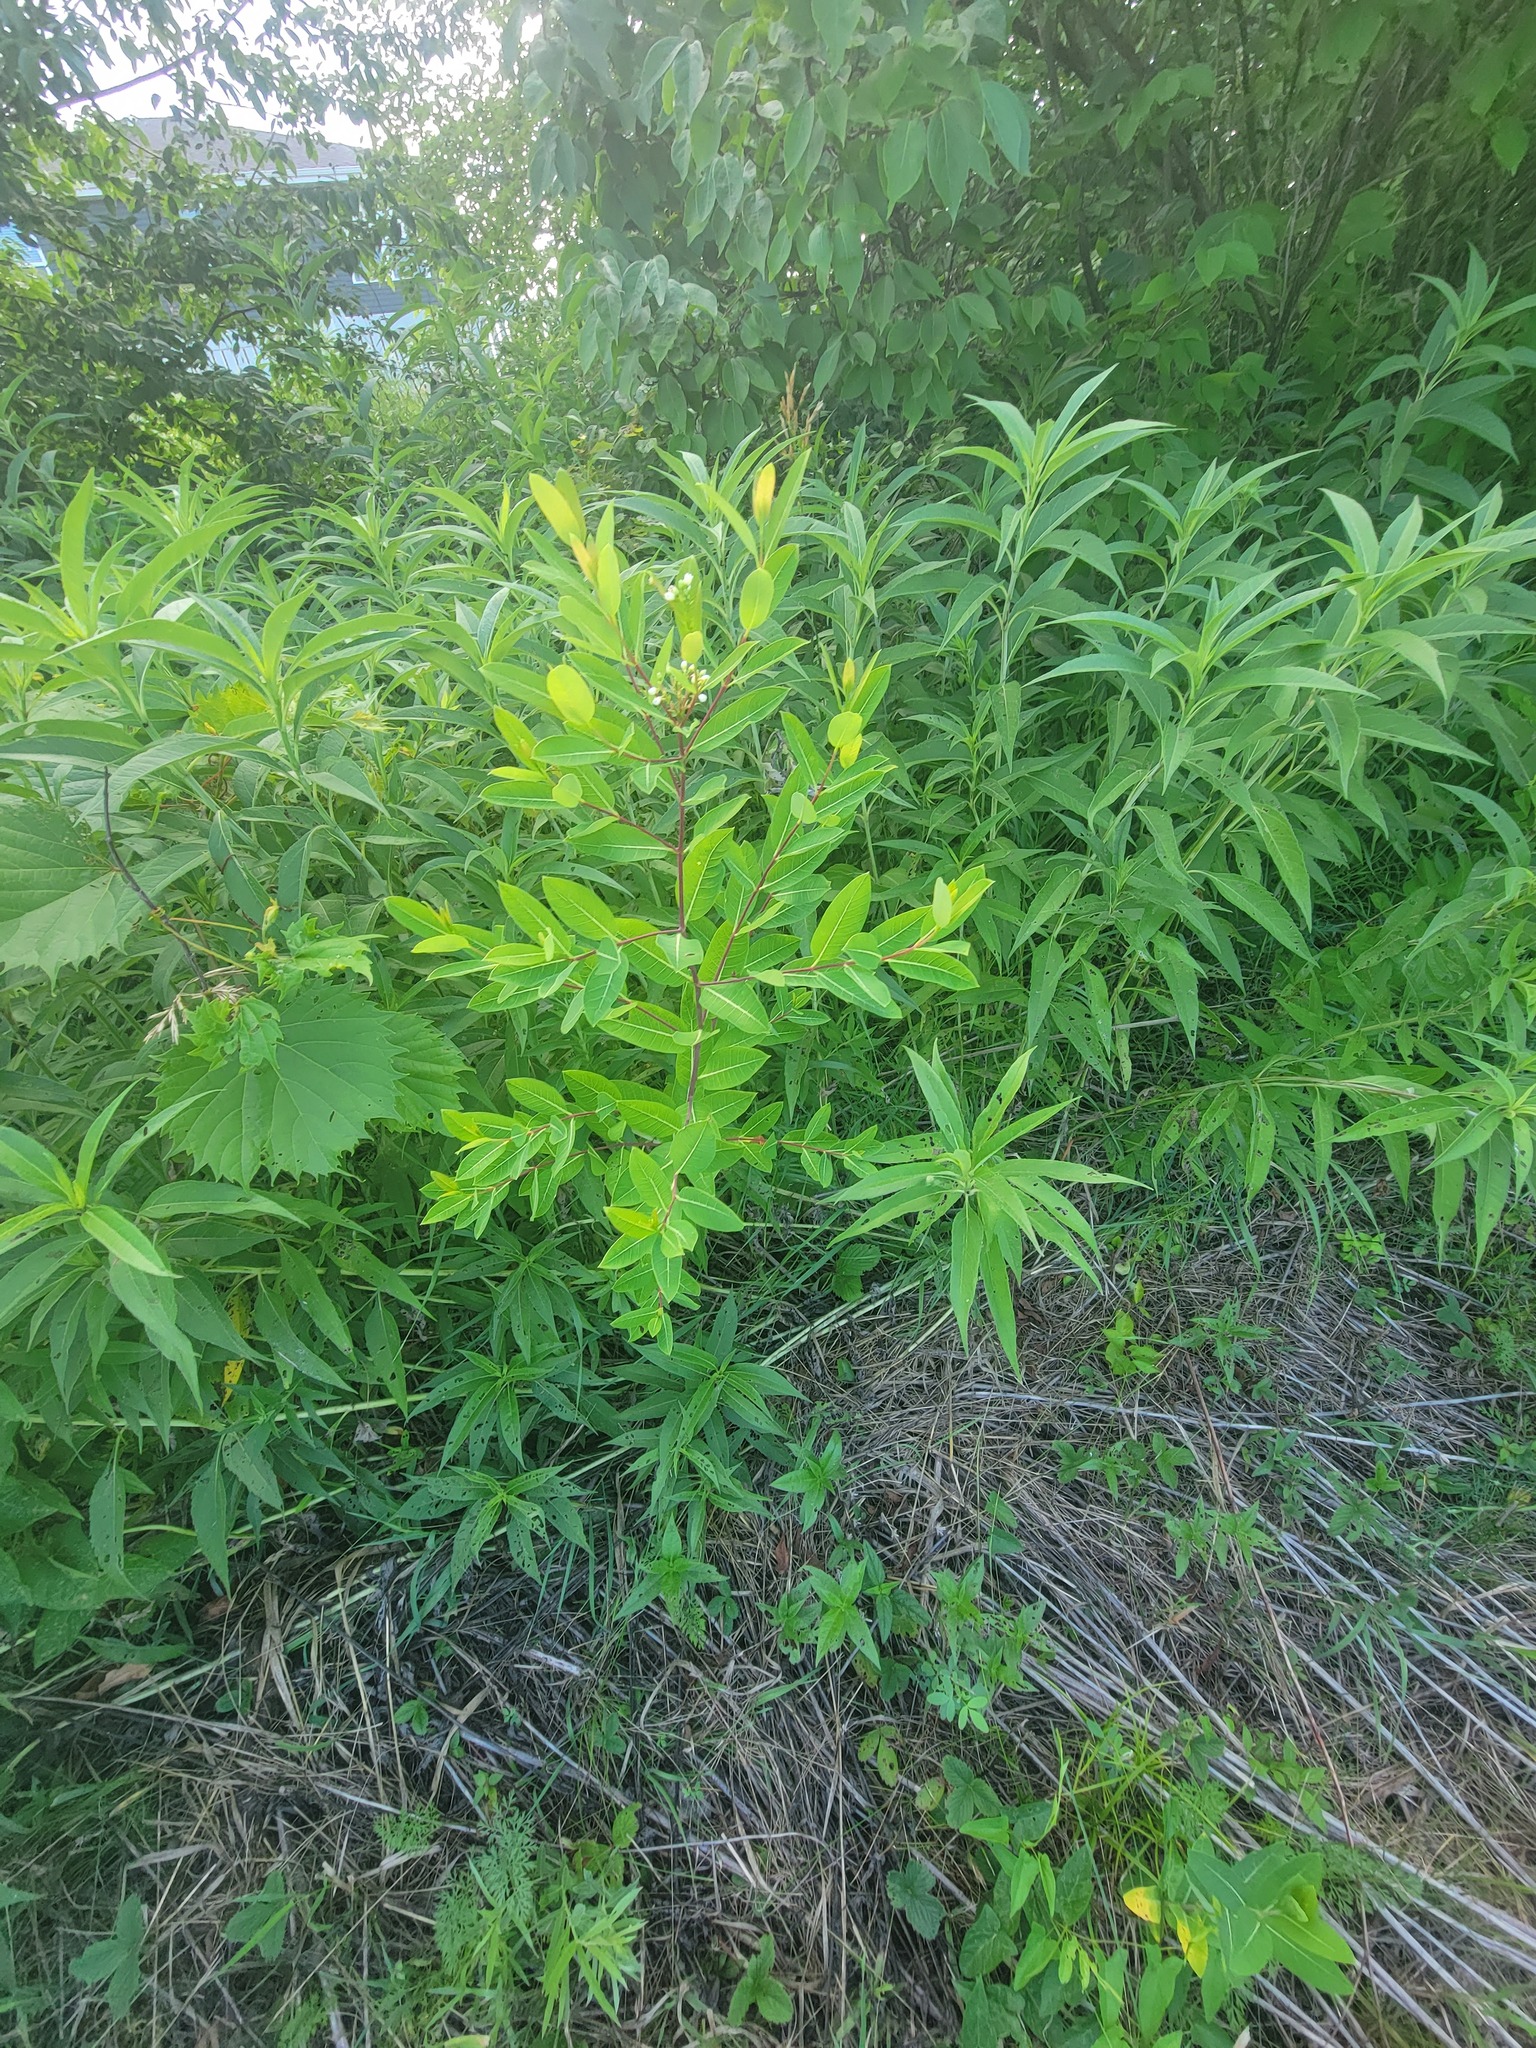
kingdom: Plantae
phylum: Tracheophyta
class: Magnoliopsida
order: Gentianales
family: Apocynaceae
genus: Apocynum
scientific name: Apocynum cannabinum
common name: Hemp dogbane
